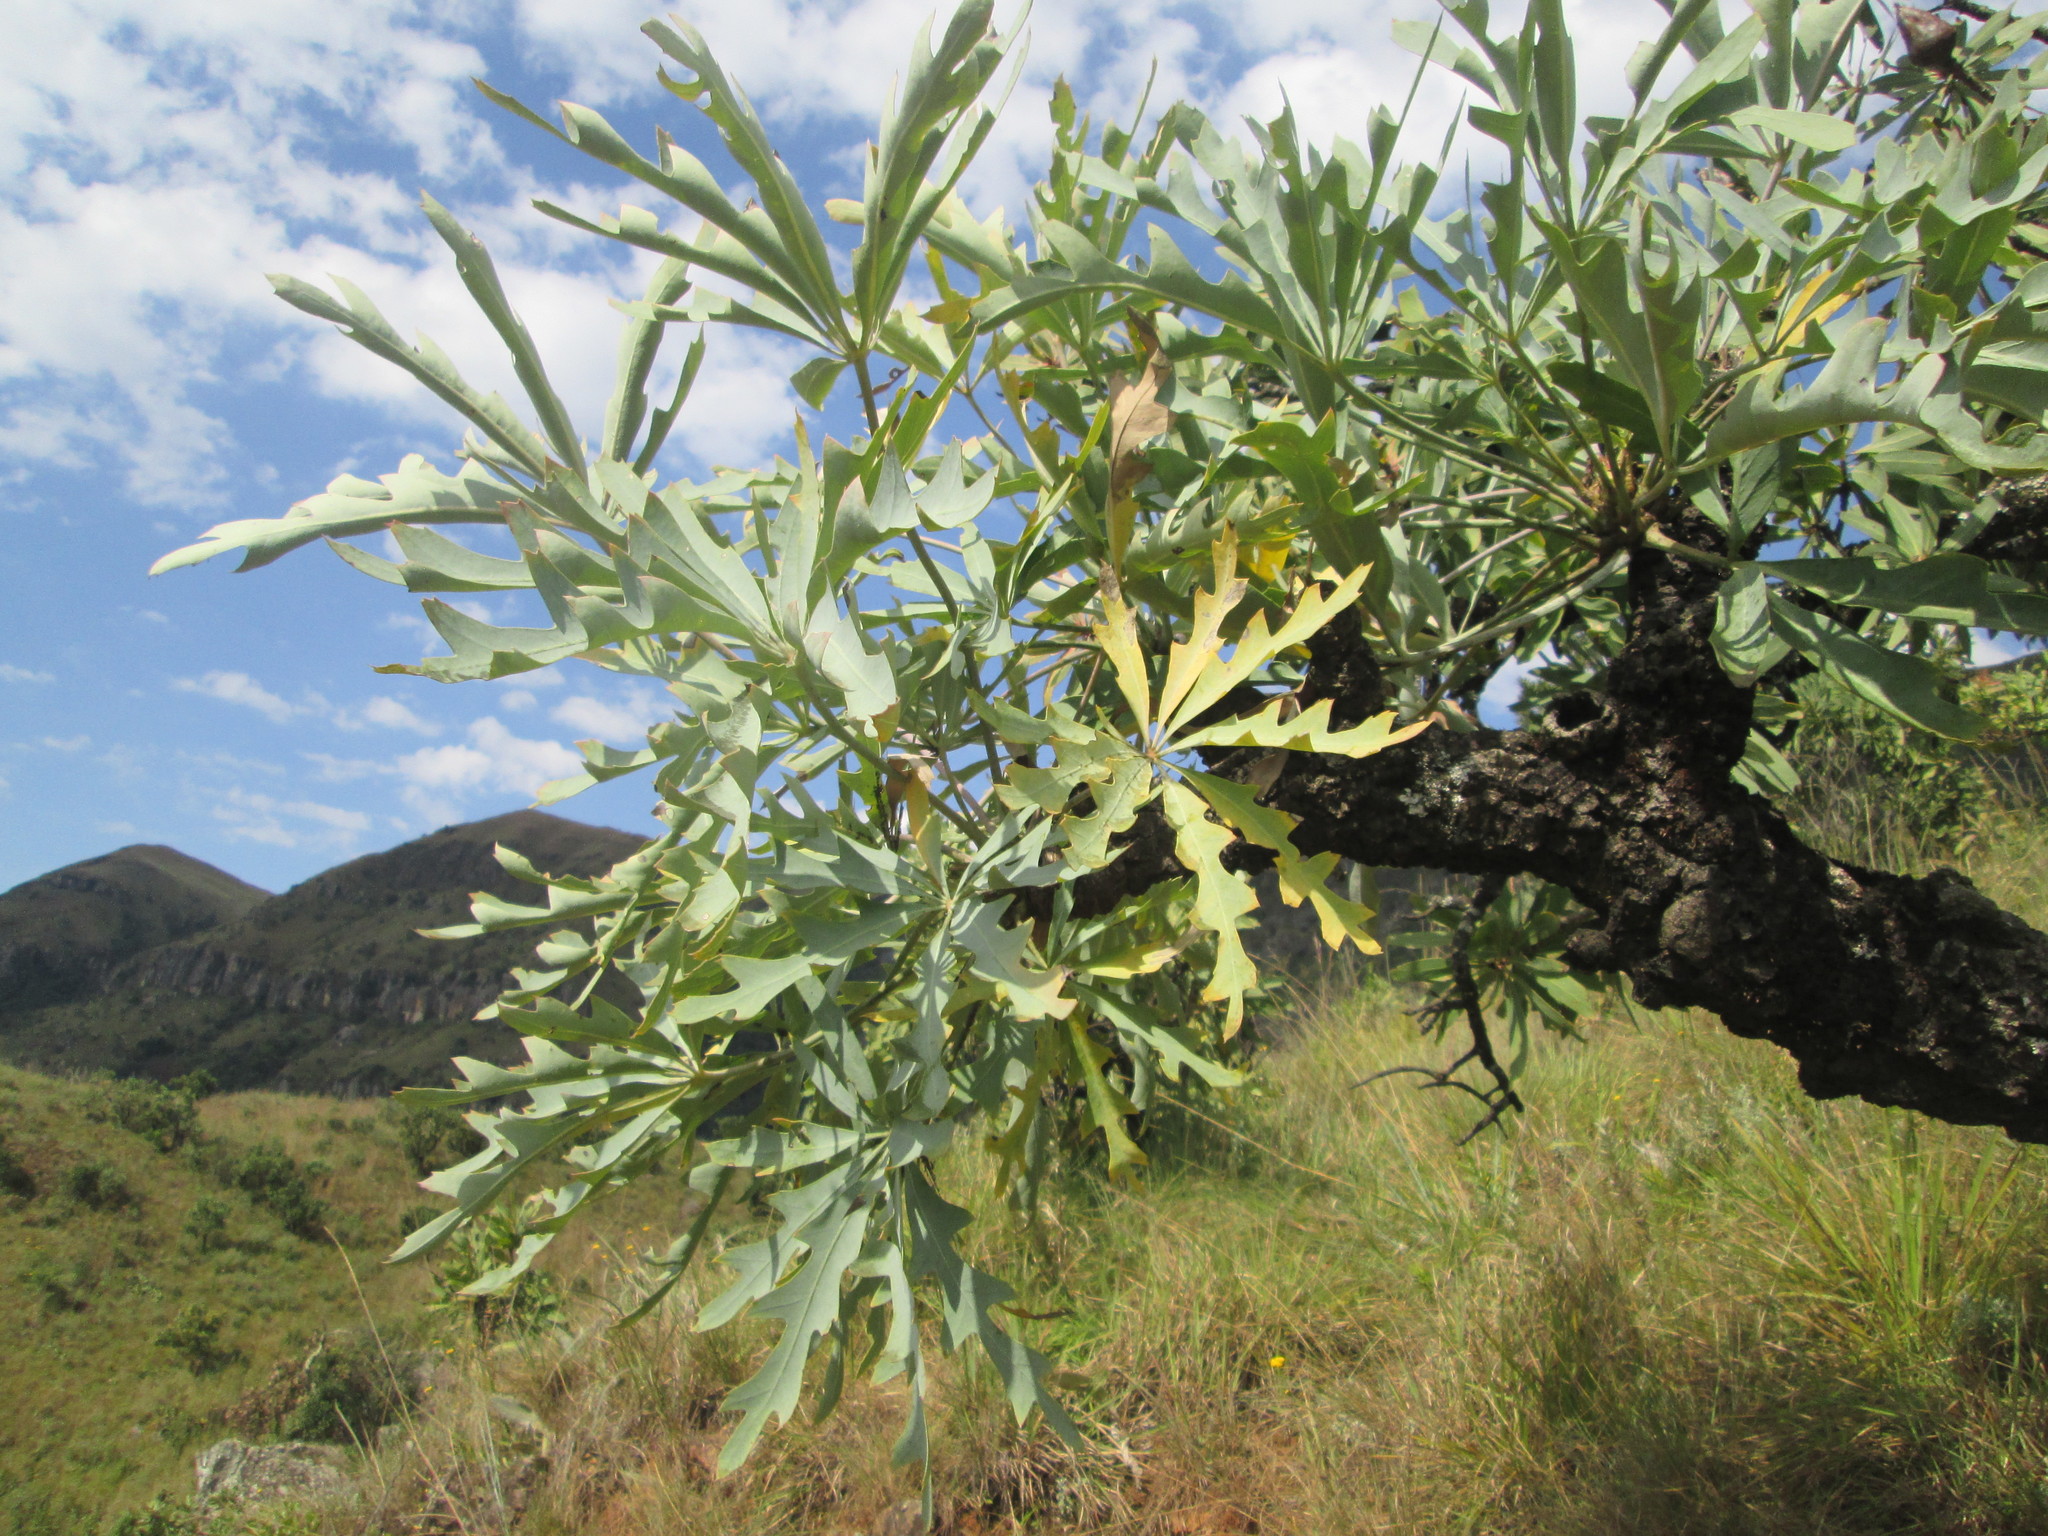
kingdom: Plantae
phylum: Tracheophyta
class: Magnoliopsida
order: Apiales
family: Araliaceae
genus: Cussonia
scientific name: Cussonia paniculata
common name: Cabbagetree
